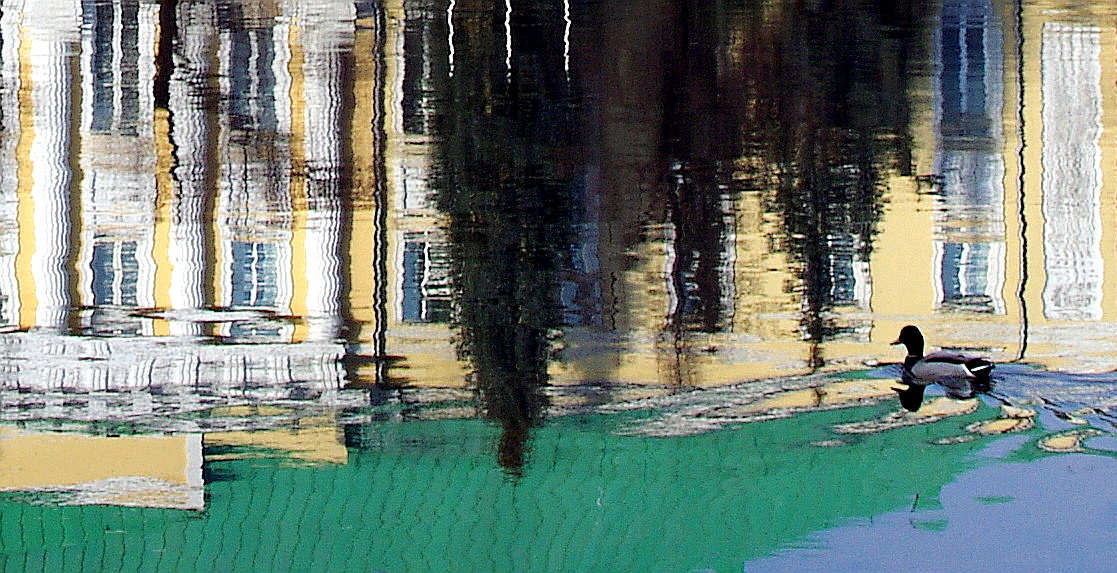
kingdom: Animalia
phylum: Chordata
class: Aves
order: Anseriformes
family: Anatidae
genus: Anas
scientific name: Anas platyrhynchos
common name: Mallard
